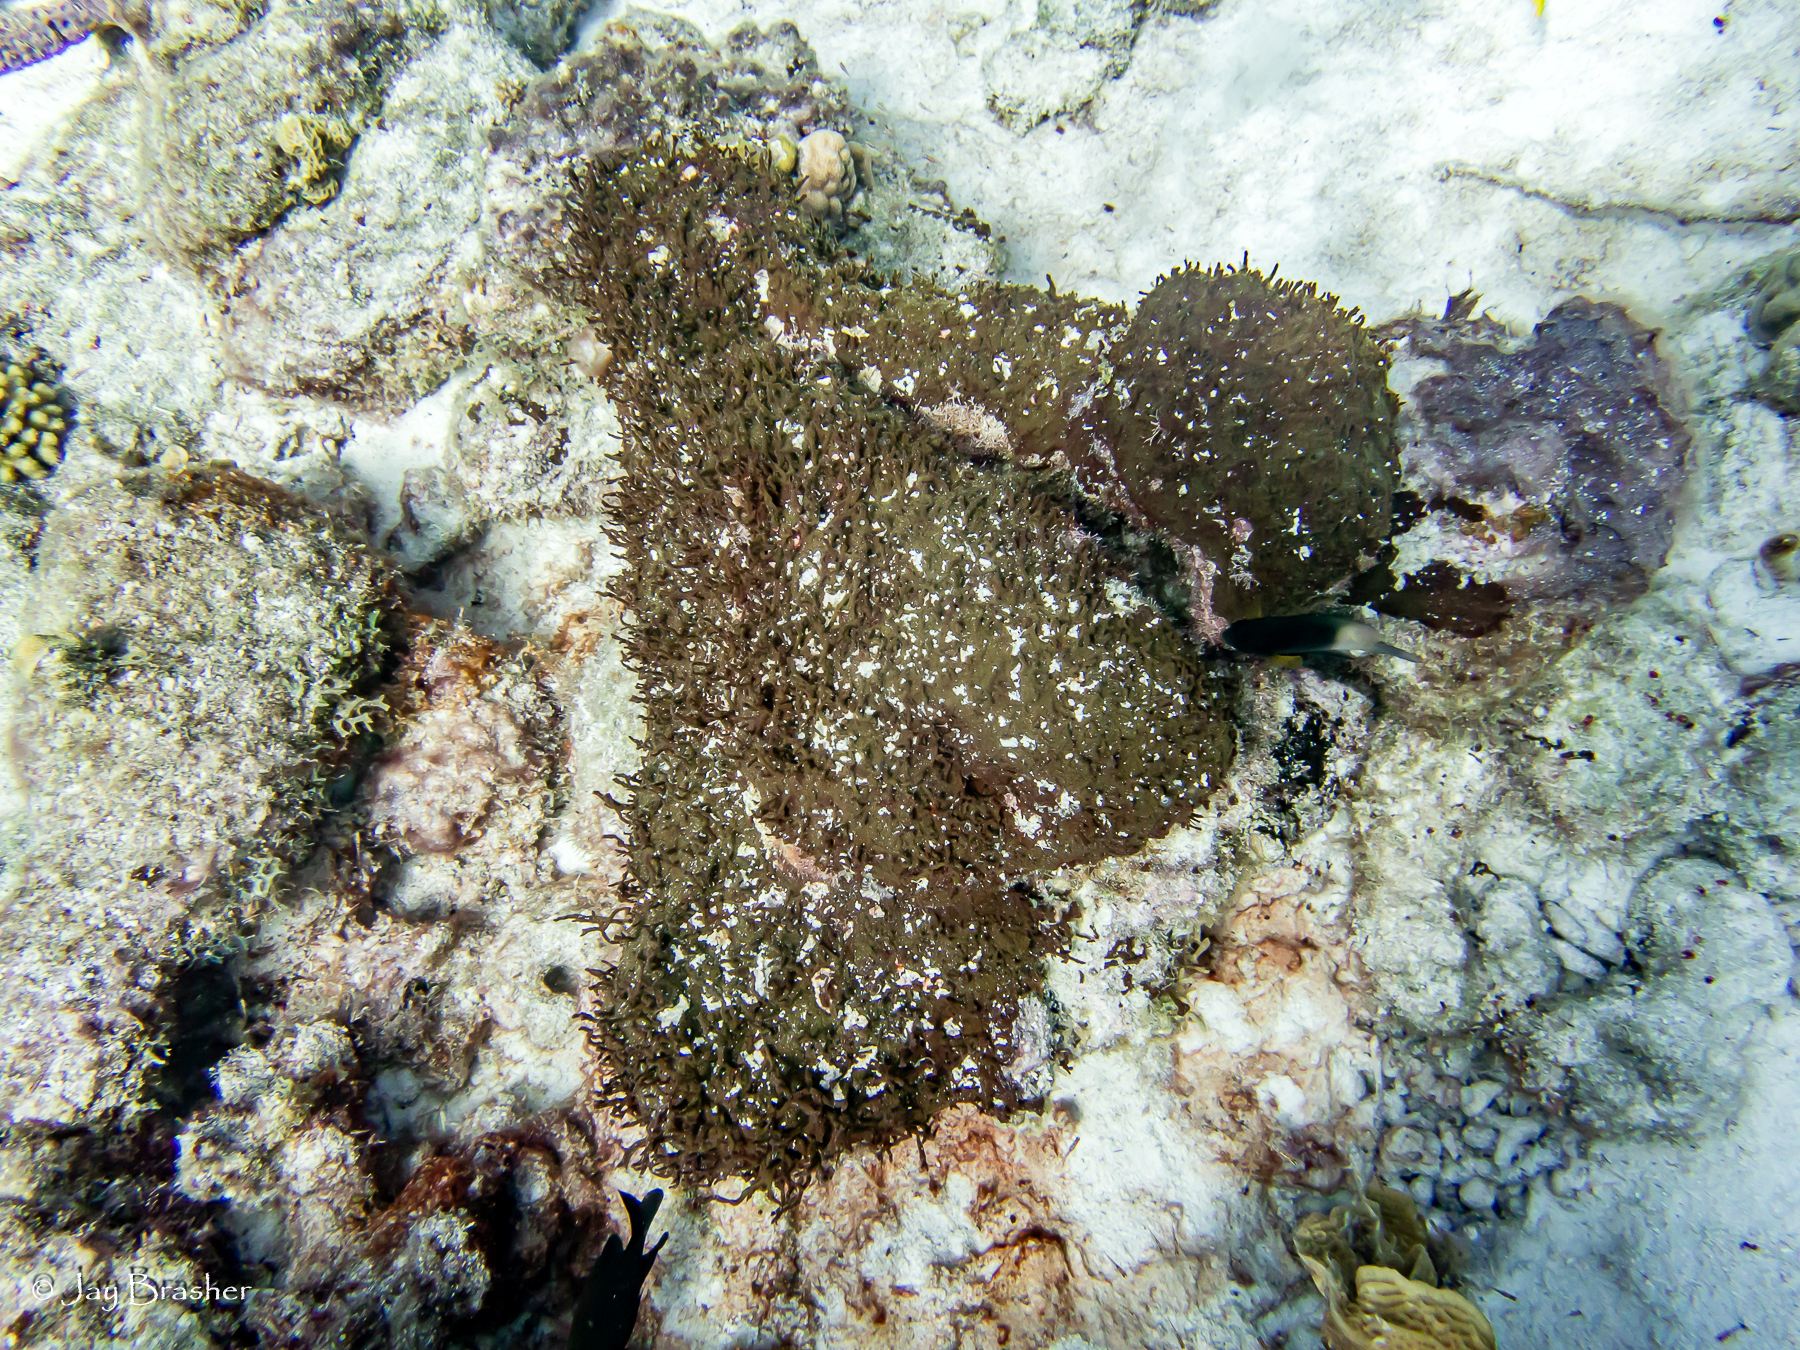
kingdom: Animalia
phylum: Porifera
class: Demospongiae
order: Bubarida
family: Dictyonellidae
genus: Dictyonella
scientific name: Dictyonella funicularis
